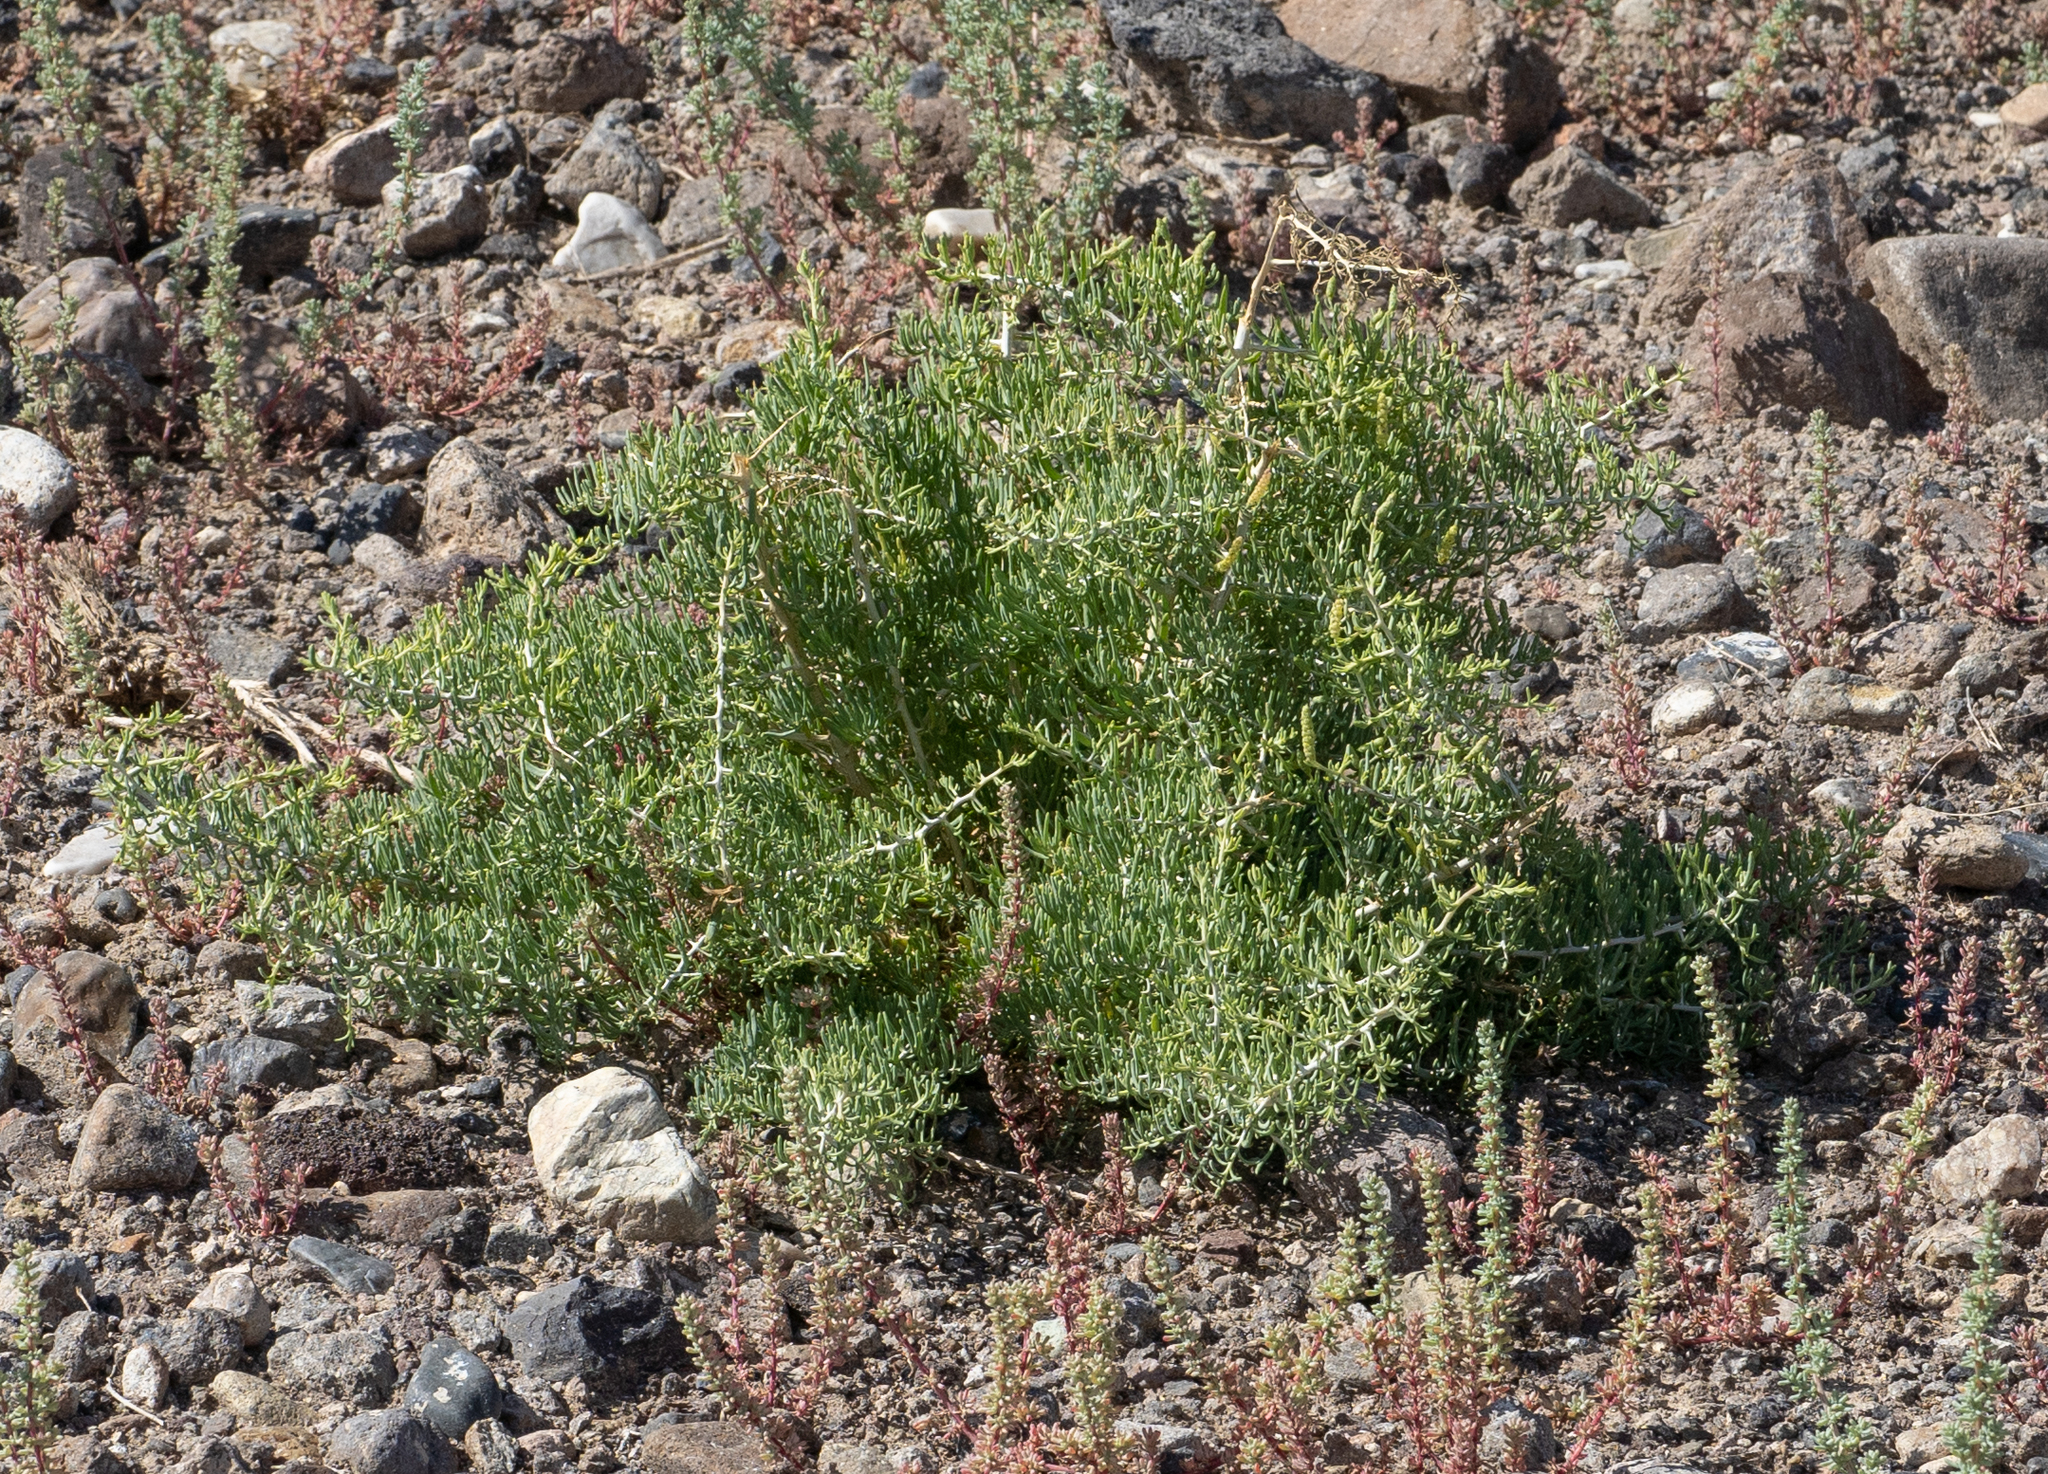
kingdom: Plantae
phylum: Tracheophyta
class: Magnoliopsida
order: Caryophyllales
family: Sarcobataceae
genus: Sarcobatus
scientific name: Sarcobatus vermiculatus
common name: Greasewood
